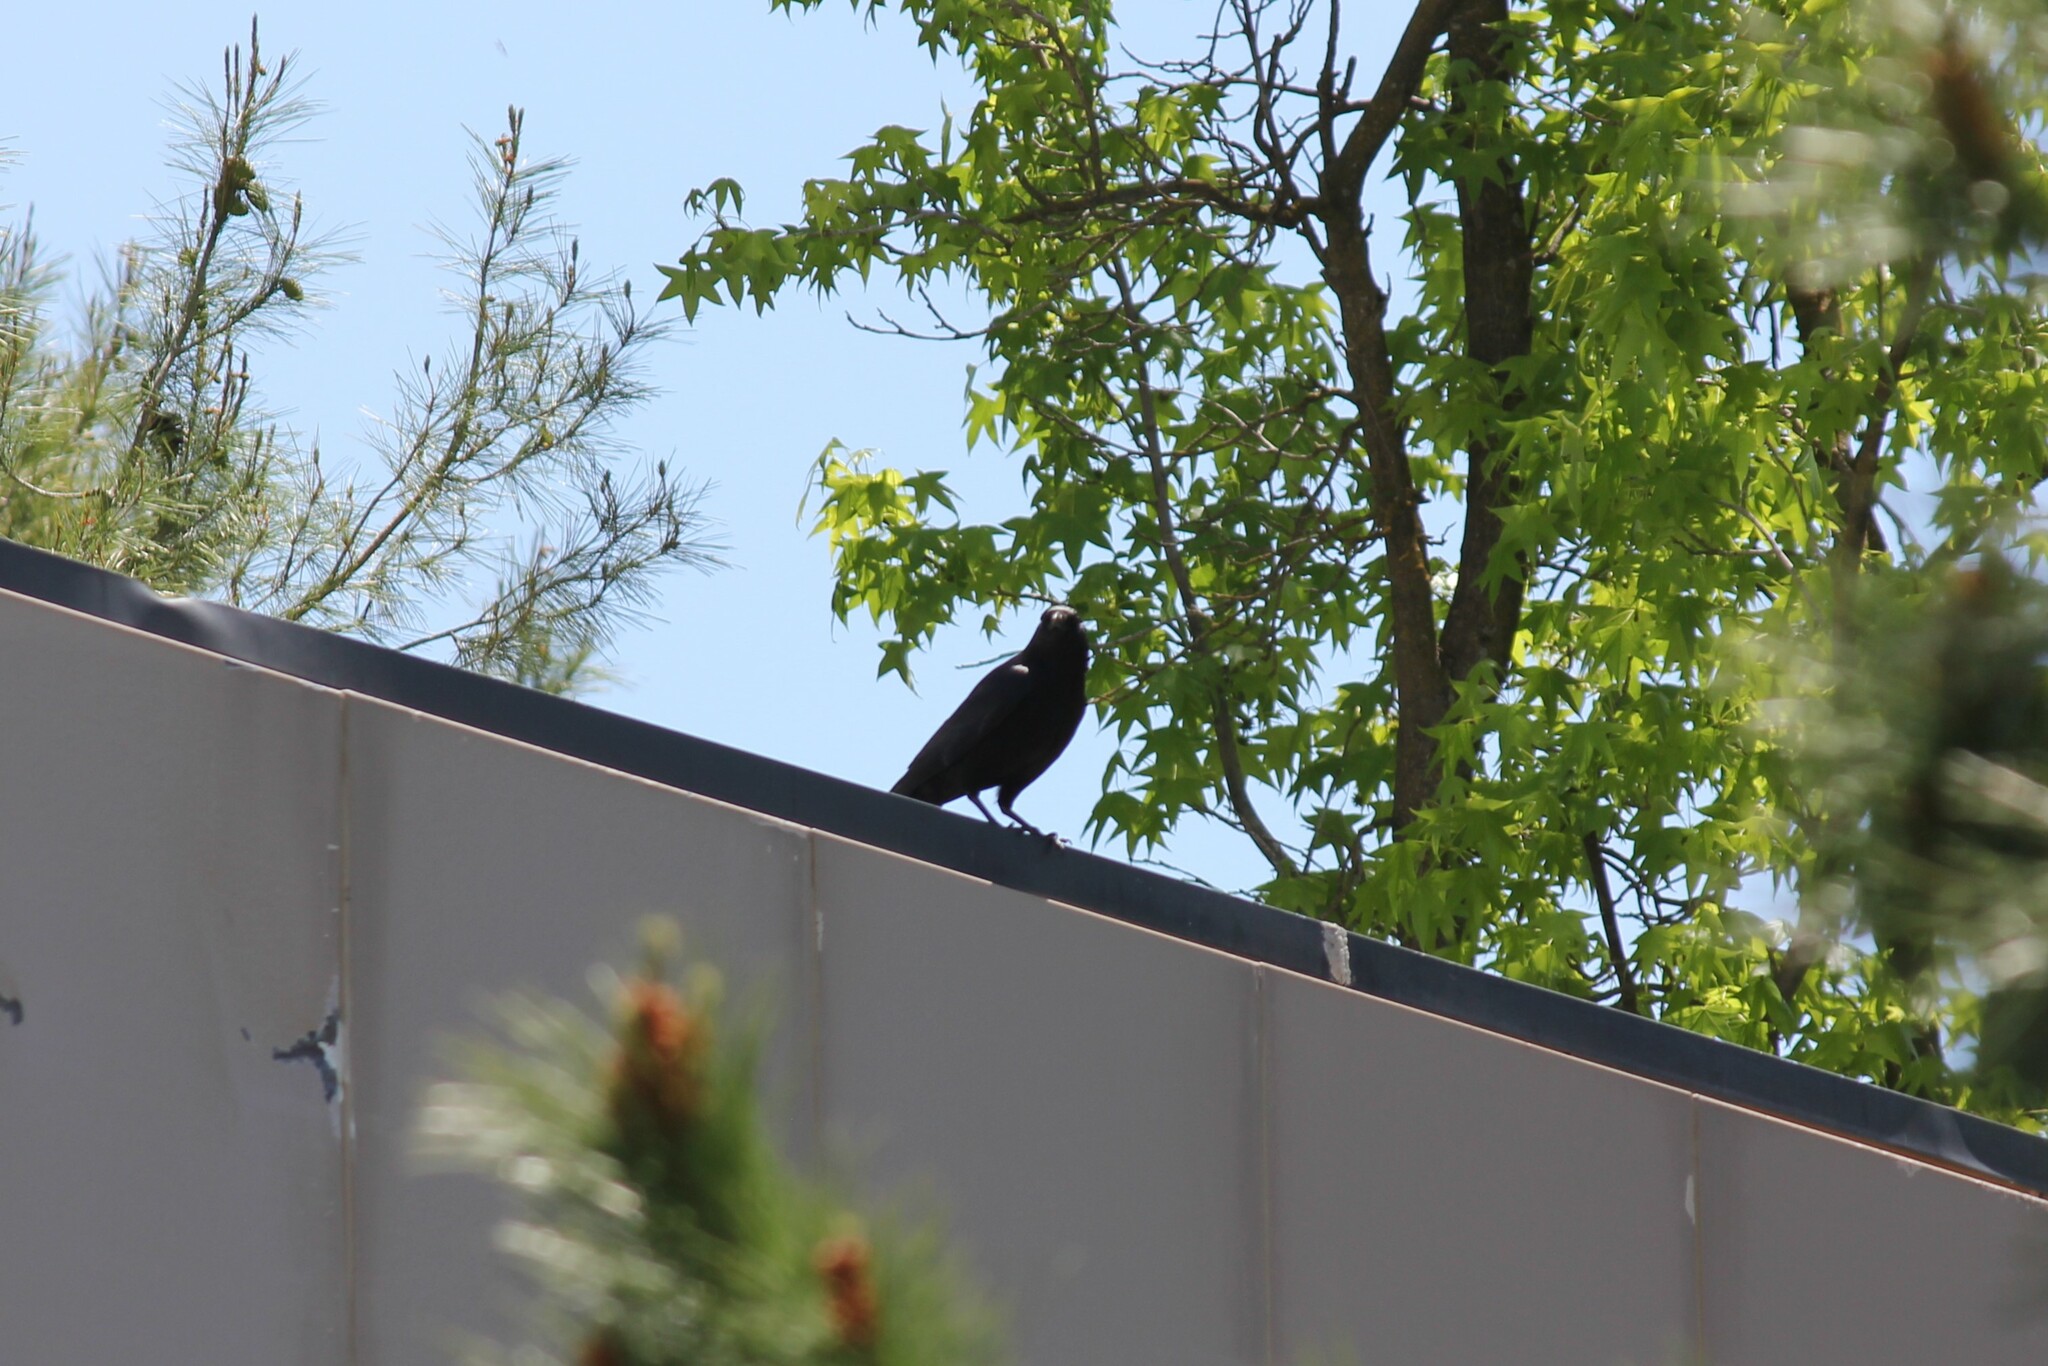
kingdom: Animalia
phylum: Chordata
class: Aves
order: Passeriformes
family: Corvidae
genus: Corvus
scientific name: Corvus brachyrhynchos
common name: American crow
